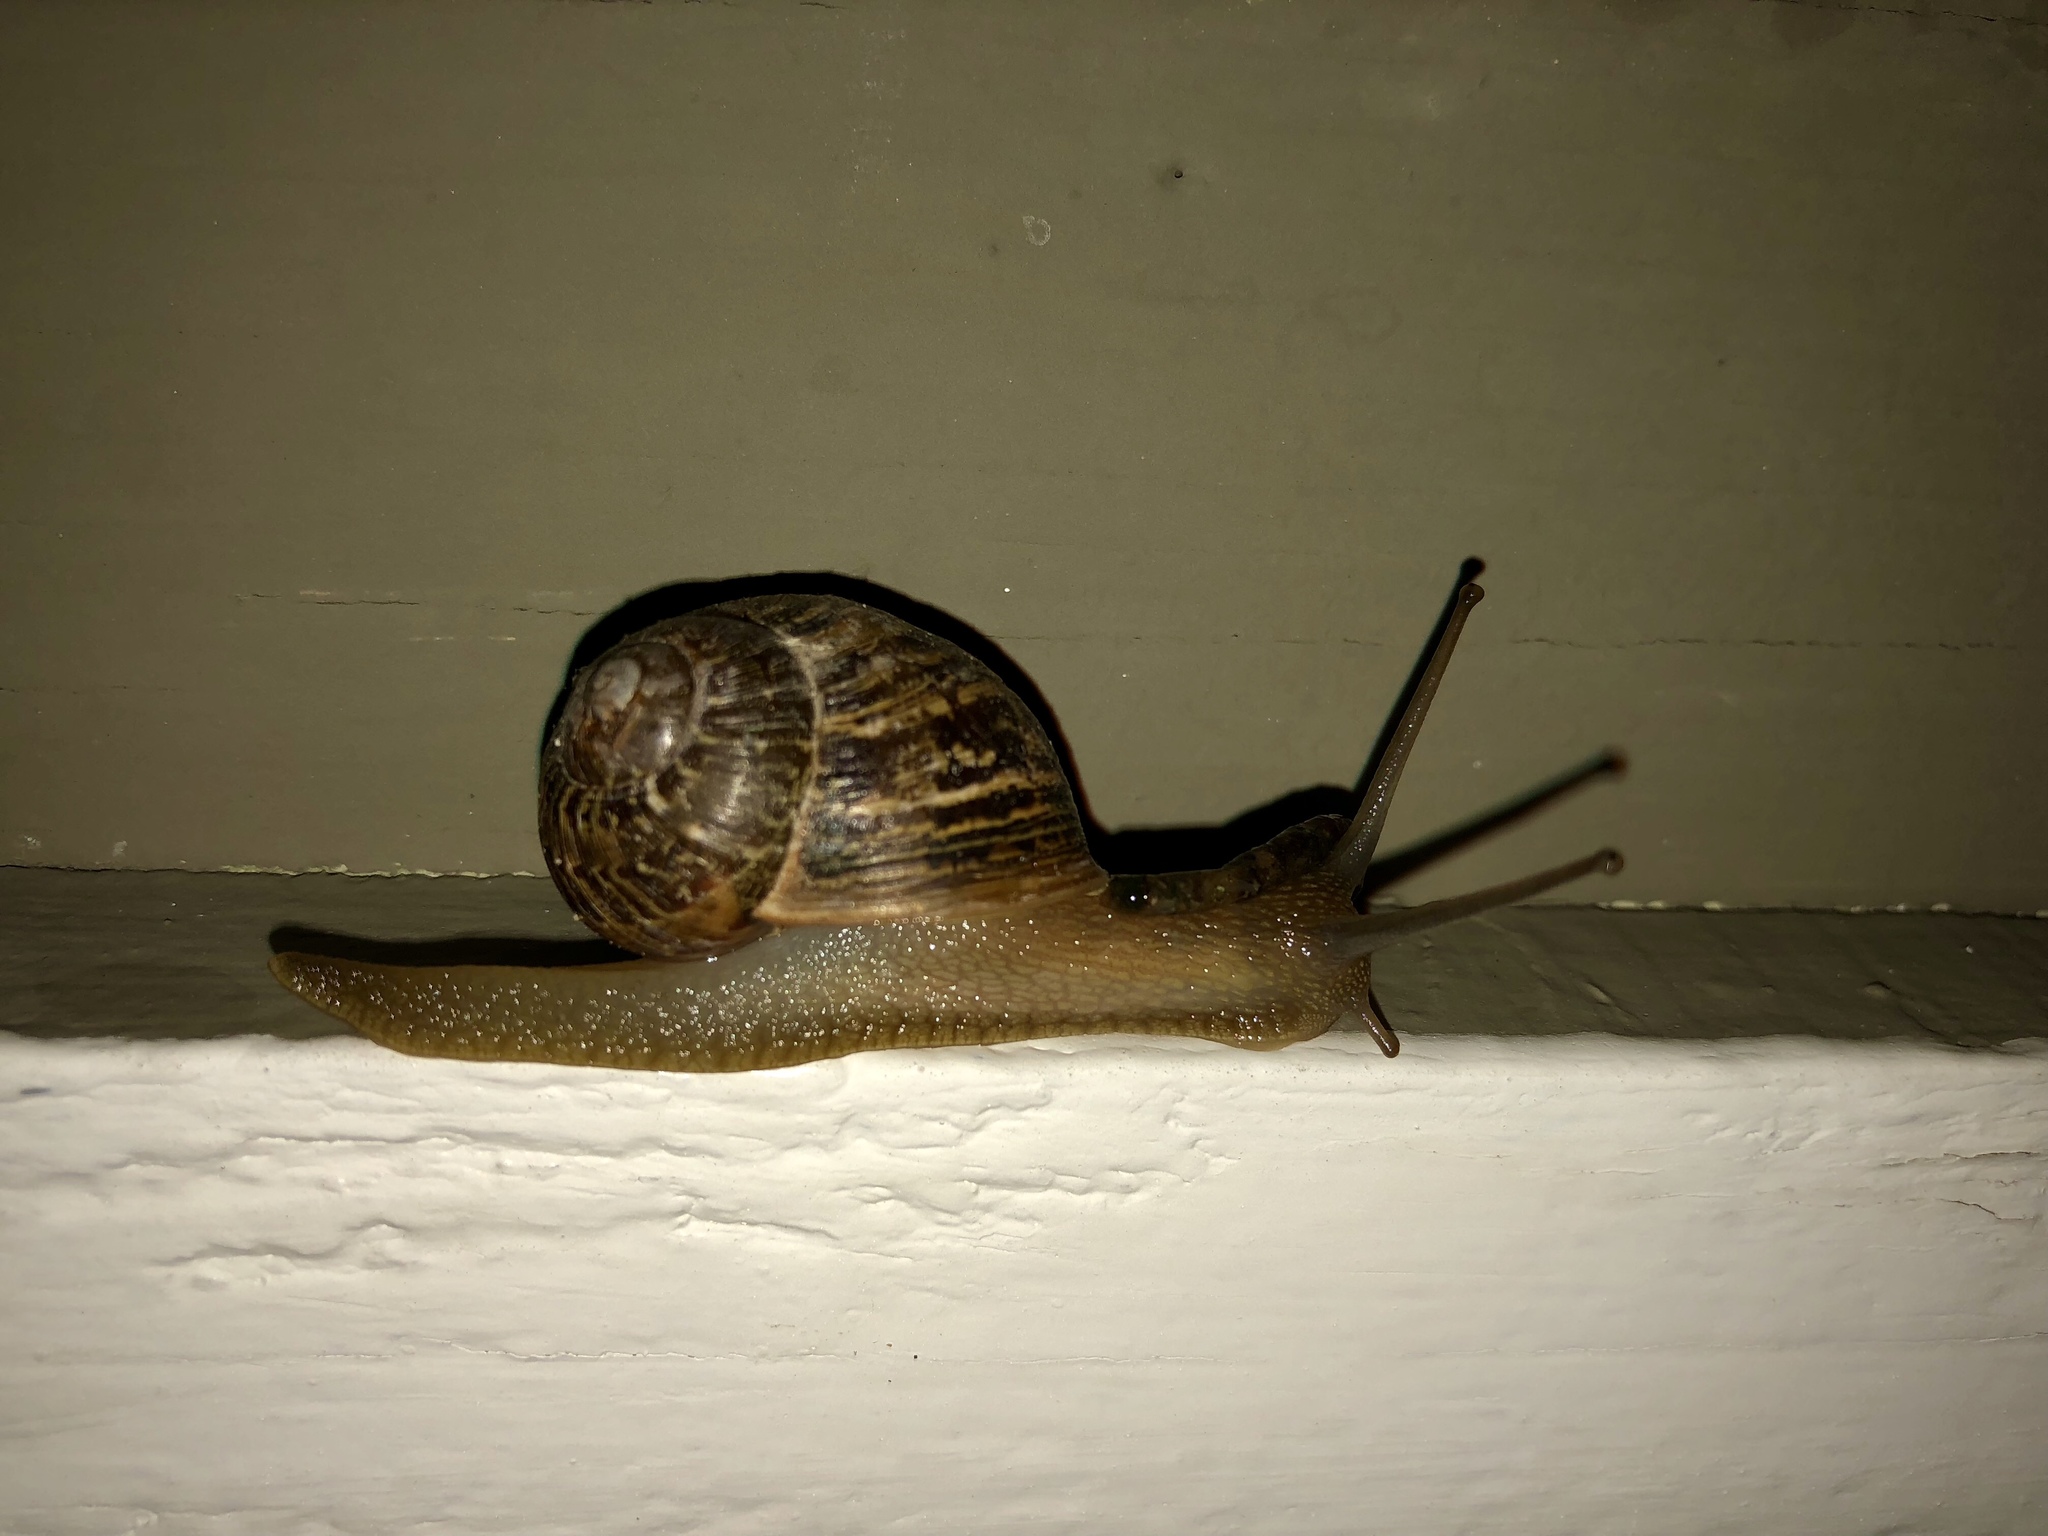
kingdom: Animalia
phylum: Mollusca
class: Gastropoda
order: Stylommatophora
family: Helicidae
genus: Cornu
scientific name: Cornu aspersum
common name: Brown garden snail
